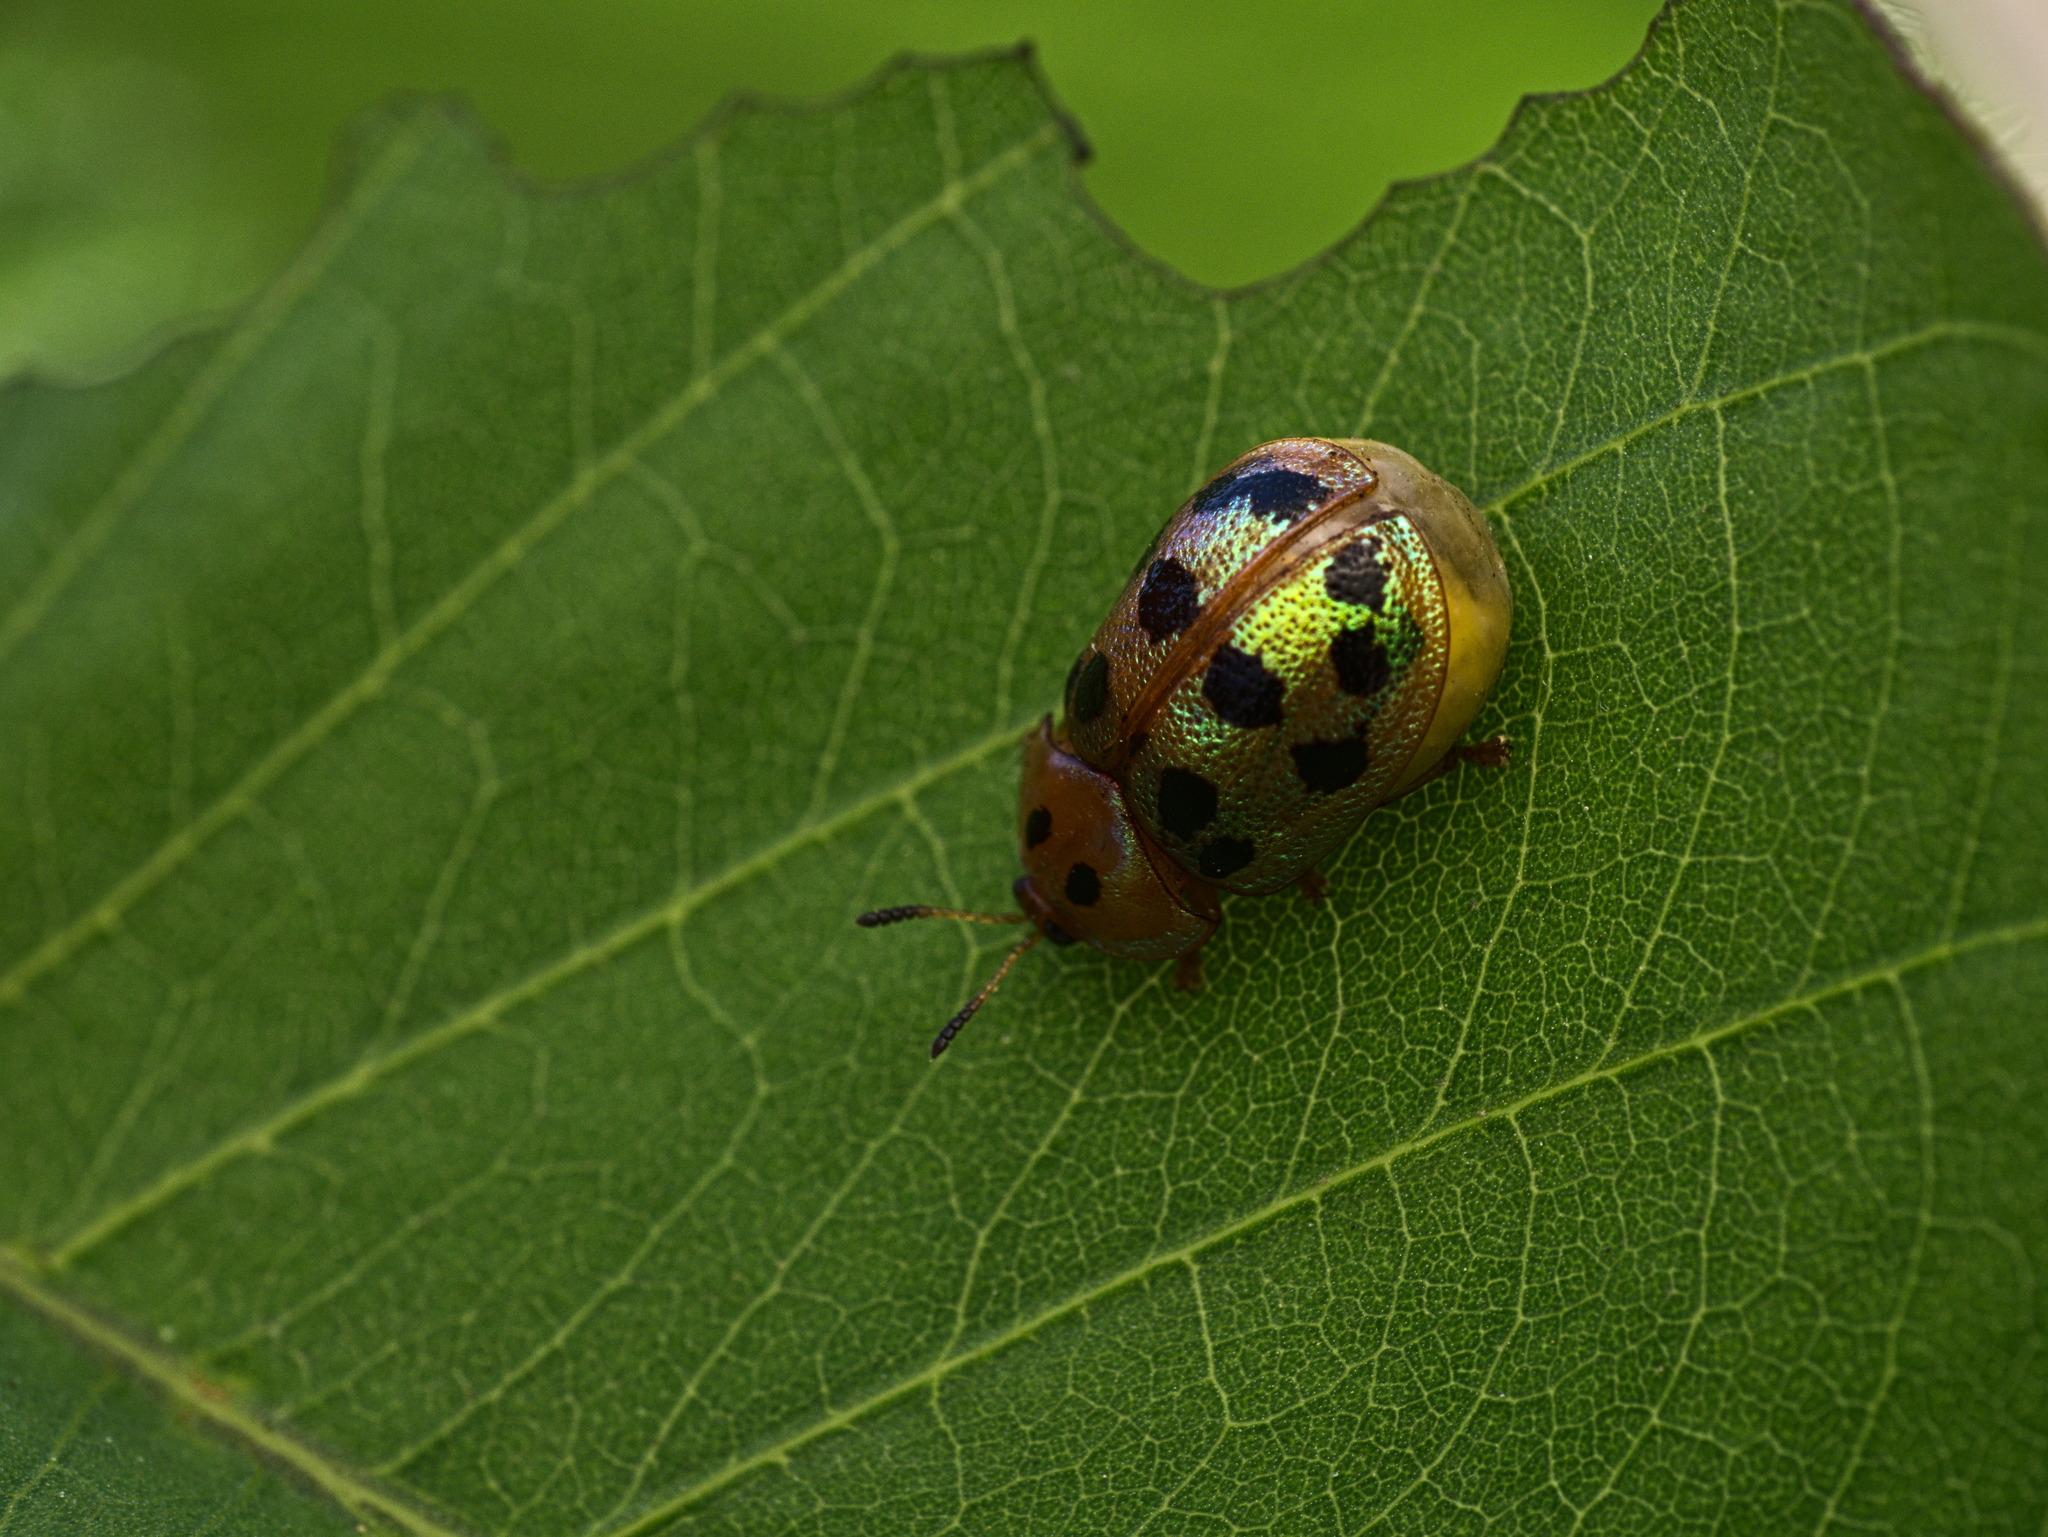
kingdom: Animalia
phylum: Arthropoda
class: Insecta
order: Coleoptera
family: Chrysomelidae
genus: Phytodectoidea
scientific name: Phytodectoidea quatordecimpunctata
